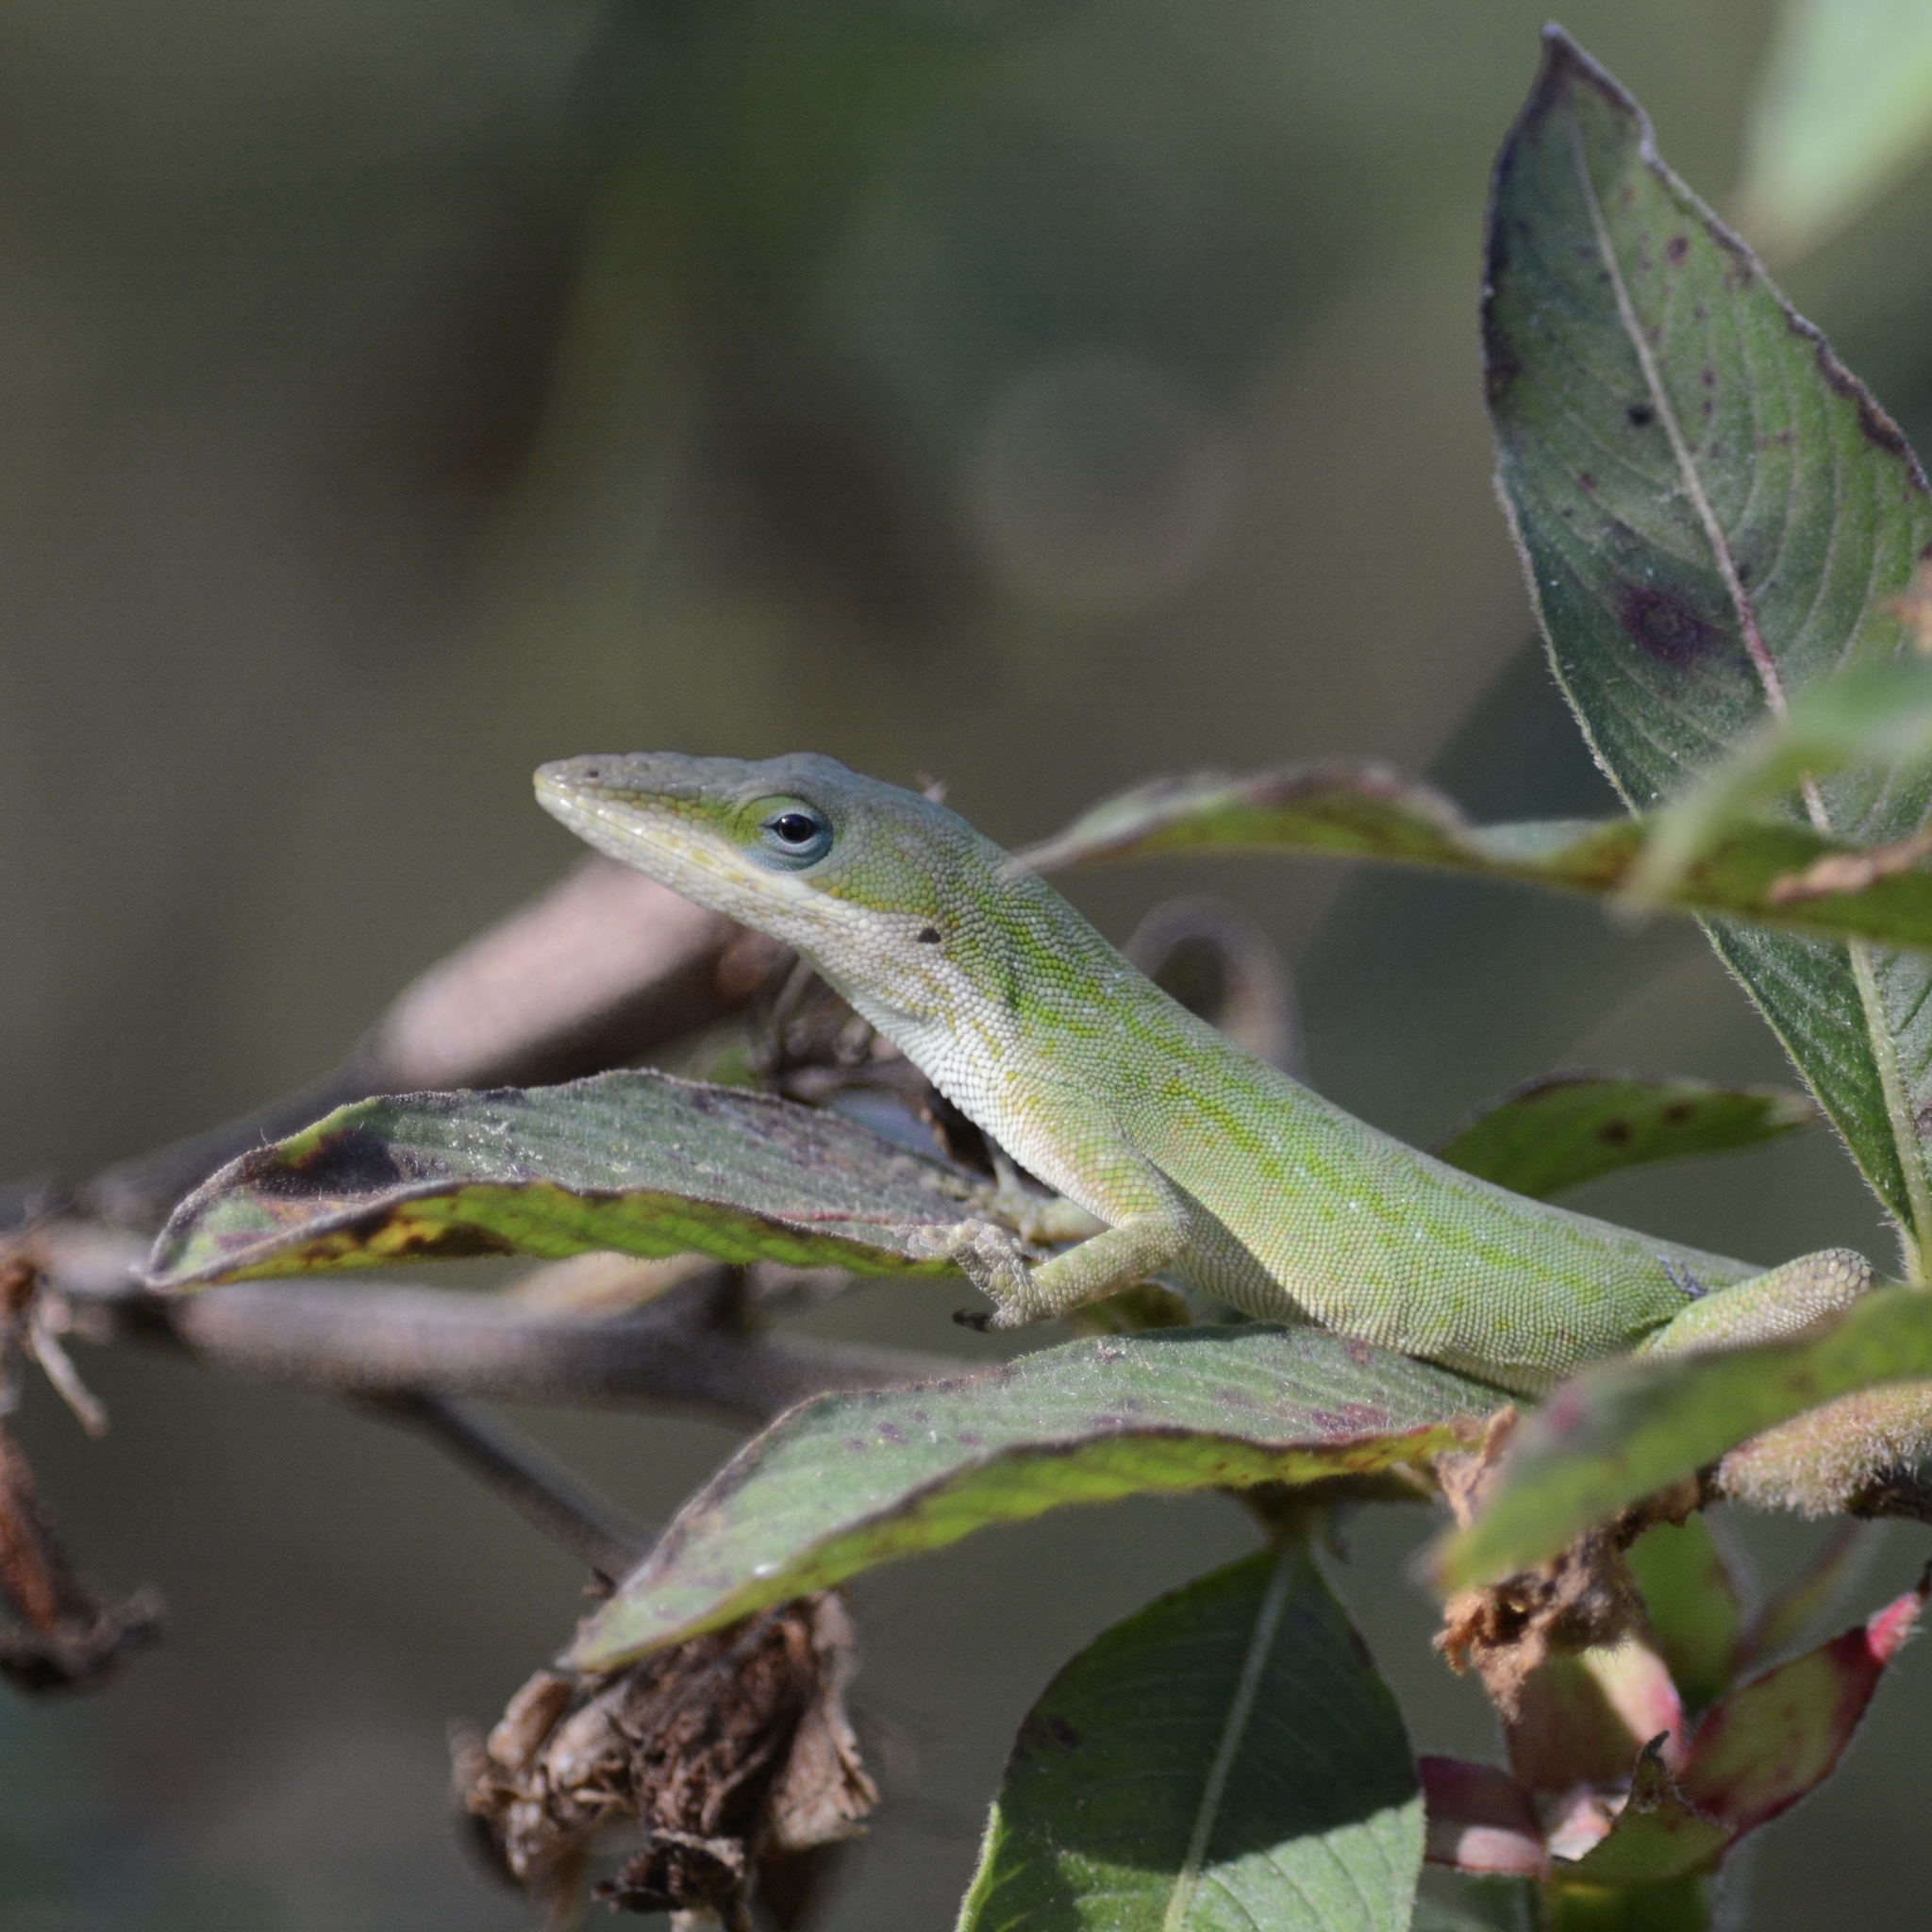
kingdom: Animalia
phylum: Chordata
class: Squamata
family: Dactyloidae
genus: Anolis
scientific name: Anolis carolinensis
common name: Green anole
